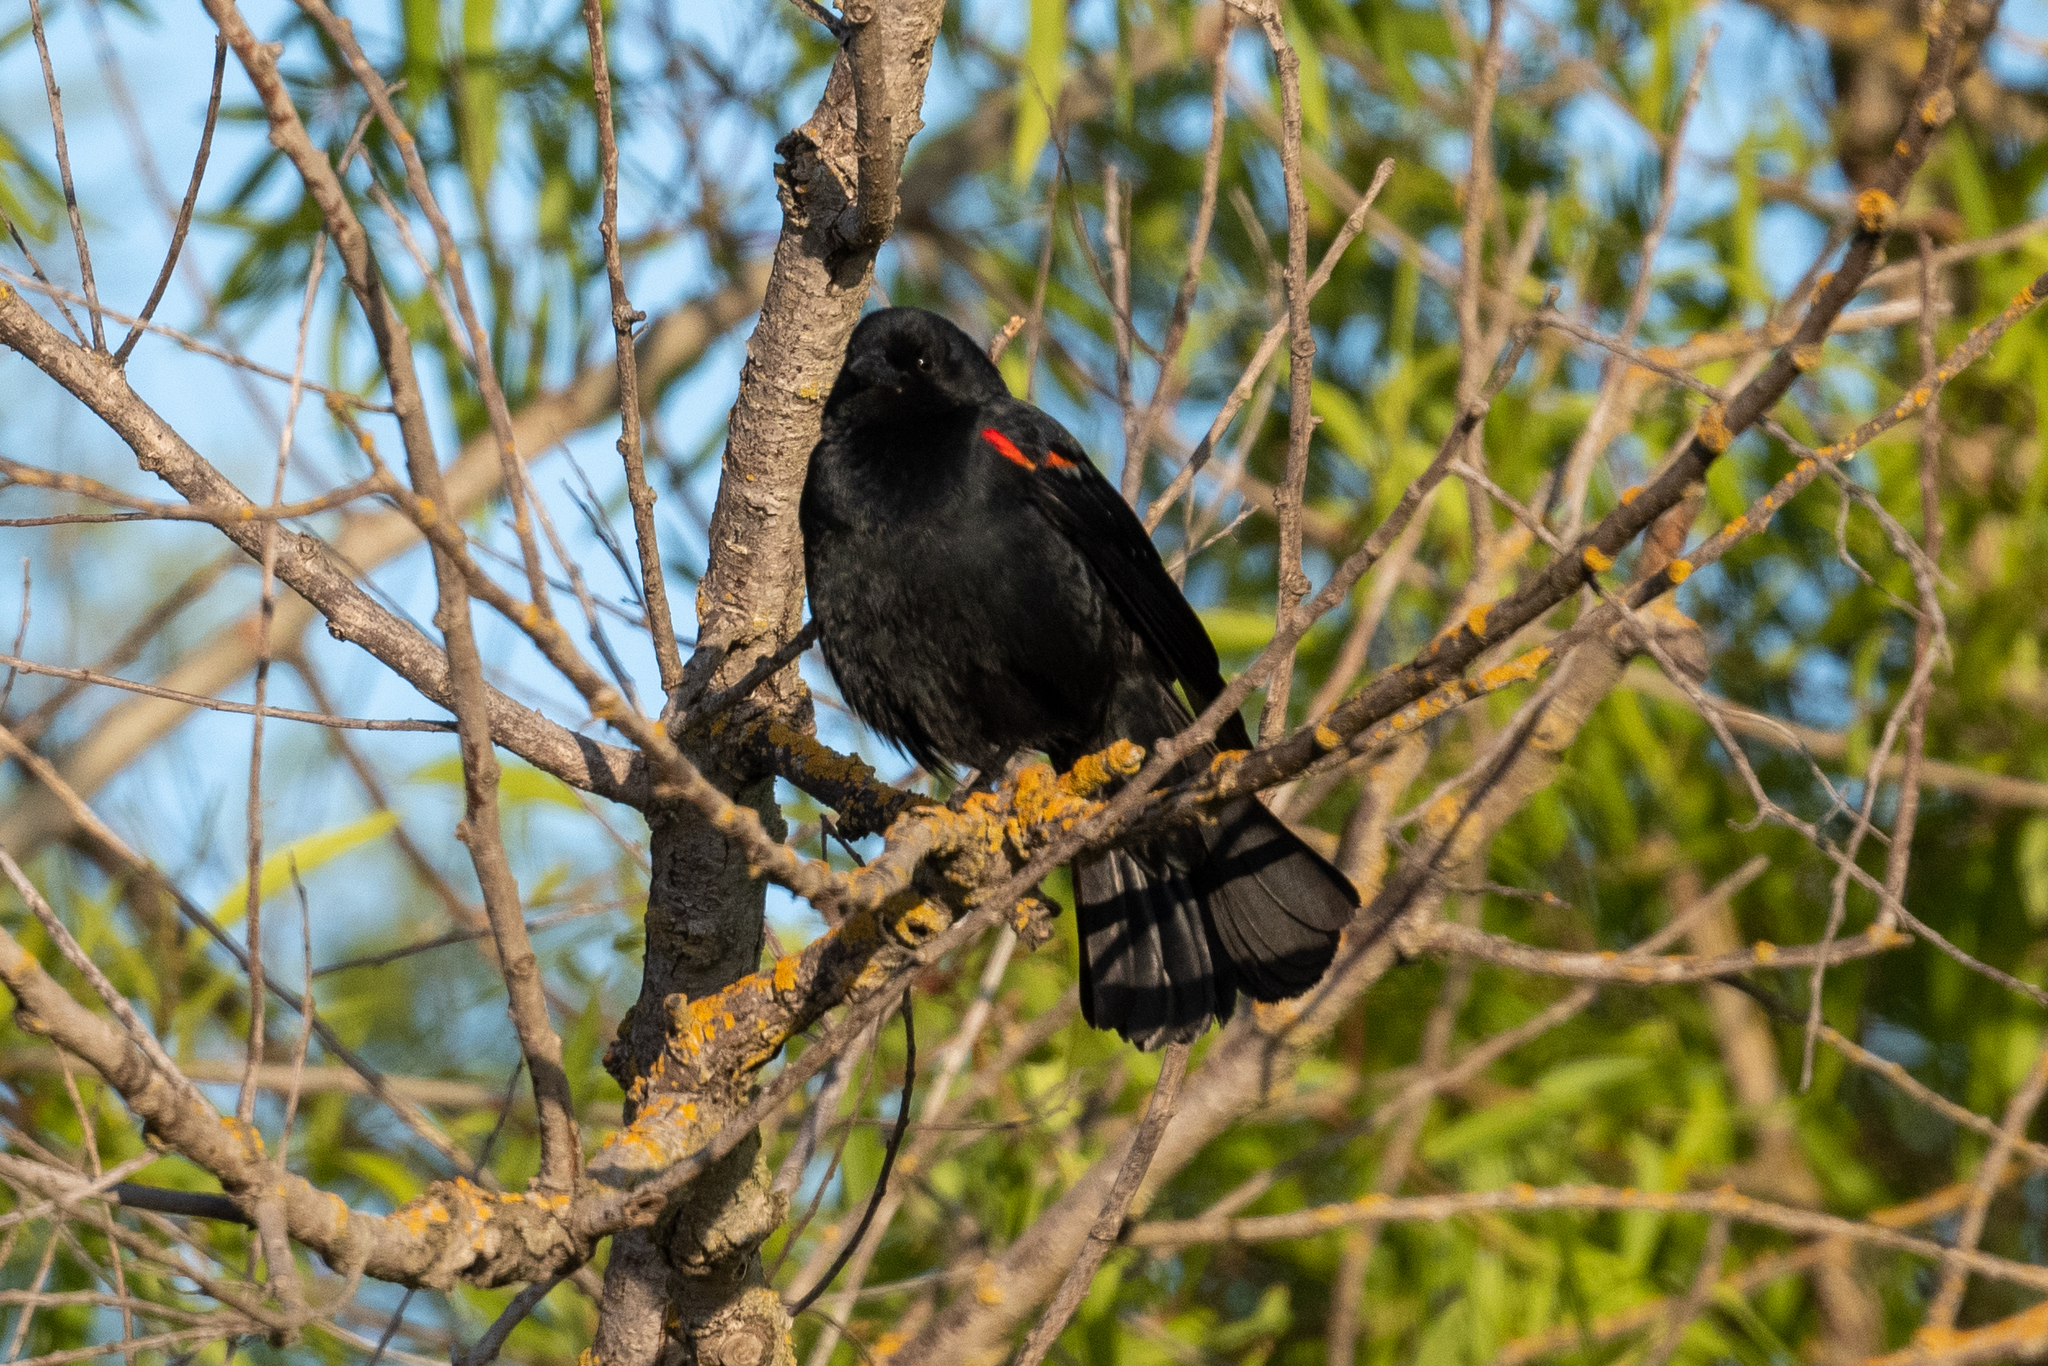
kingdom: Animalia
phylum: Chordata
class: Aves
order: Passeriformes
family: Icteridae
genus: Agelaius
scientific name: Agelaius phoeniceus
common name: Red-winged blackbird
